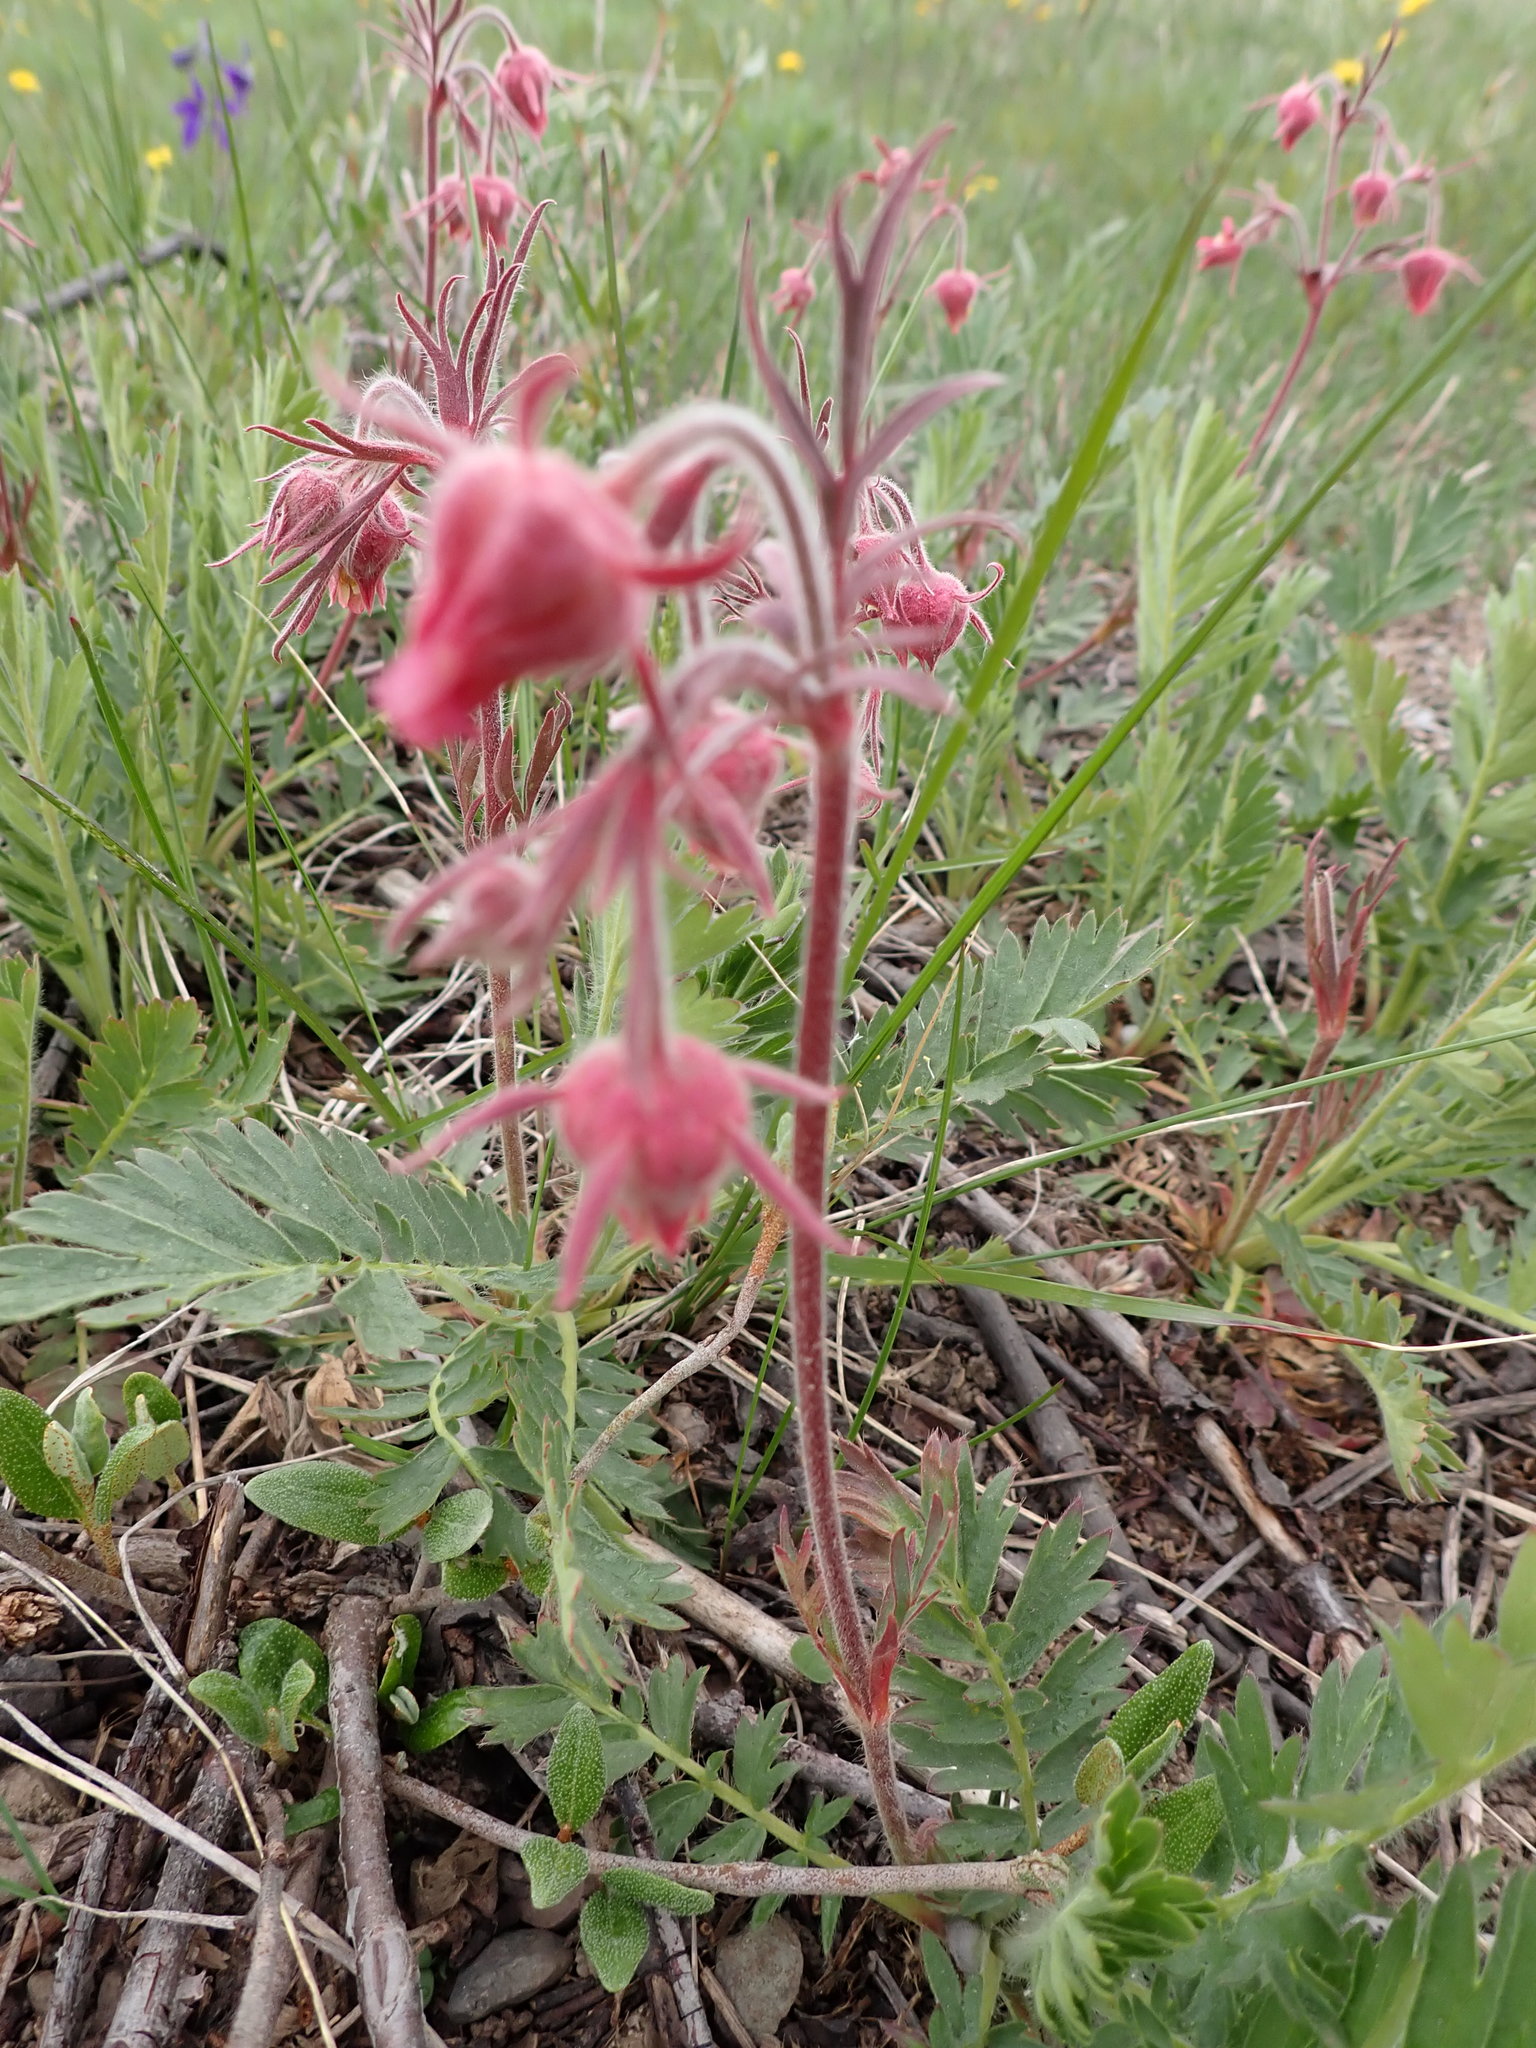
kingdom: Plantae
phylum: Tracheophyta
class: Magnoliopsida
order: Rosales
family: Rosaceae
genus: Geum
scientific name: Geum triflorum
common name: Old man's whiskers
